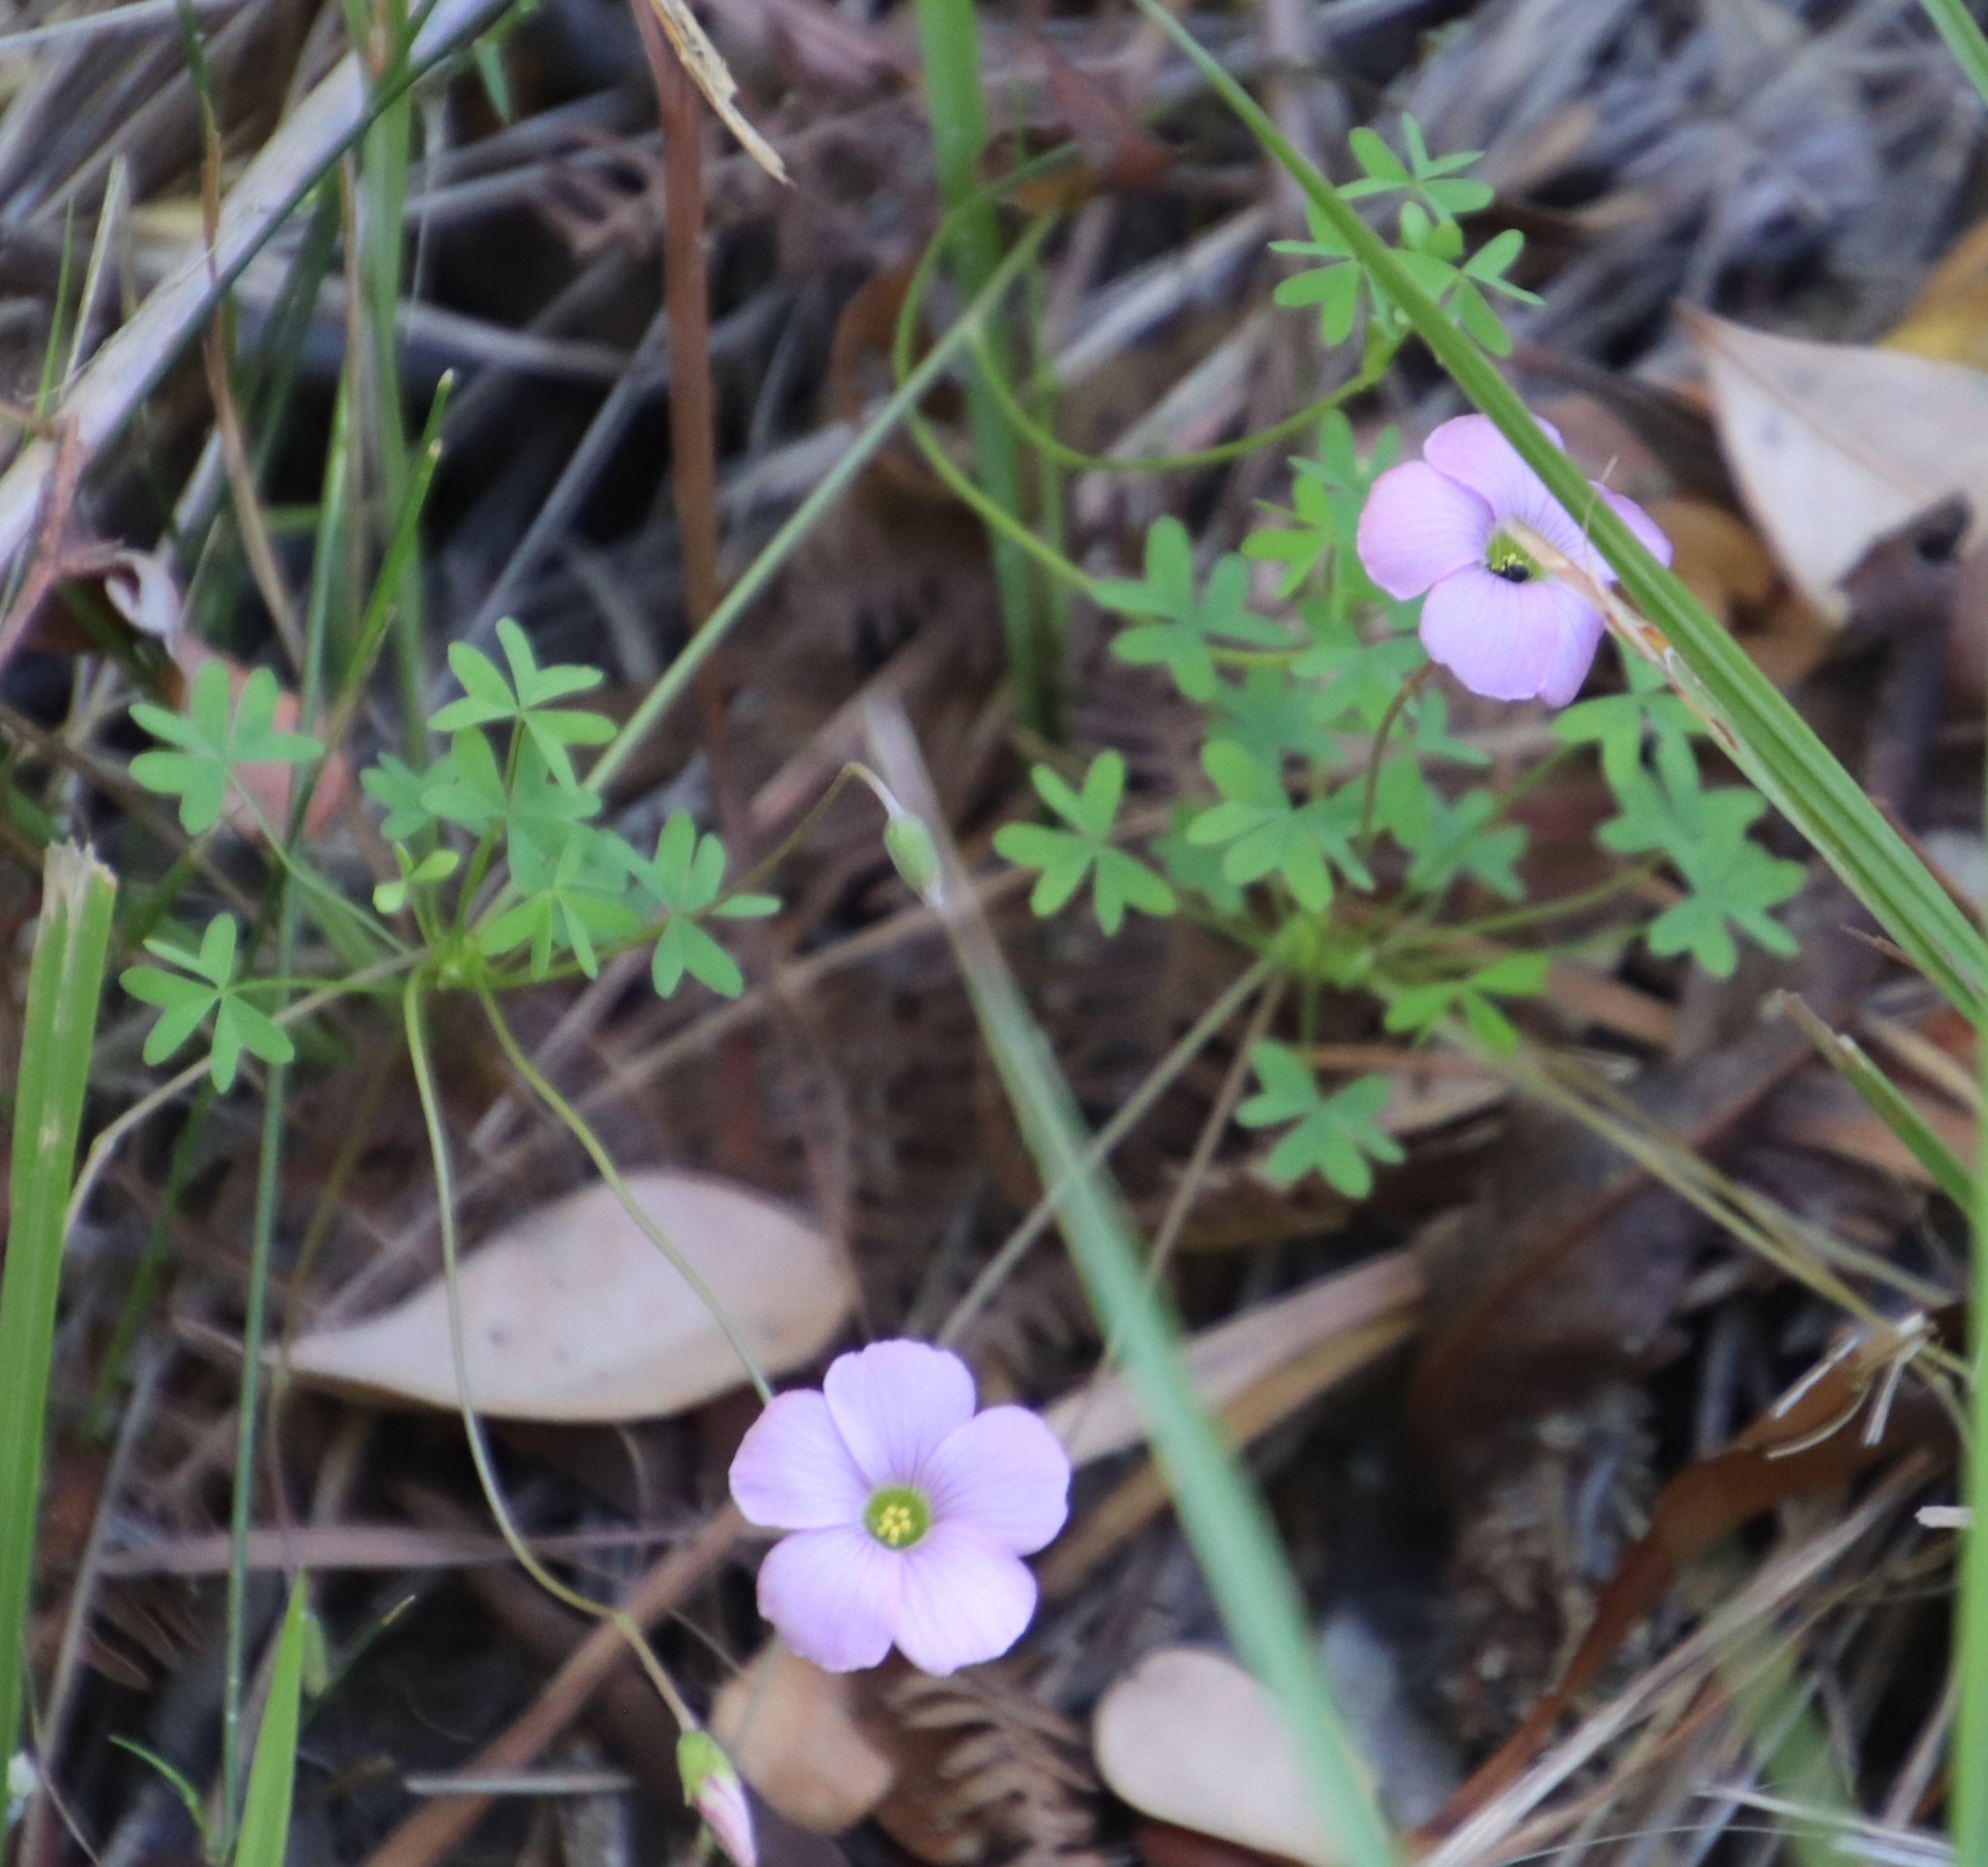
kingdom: Plantae
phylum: Tracheophyta
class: Magnoliopsida
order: Oxalidales
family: Oxalidaceae
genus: Oxalis
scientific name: Oxalis bifida
